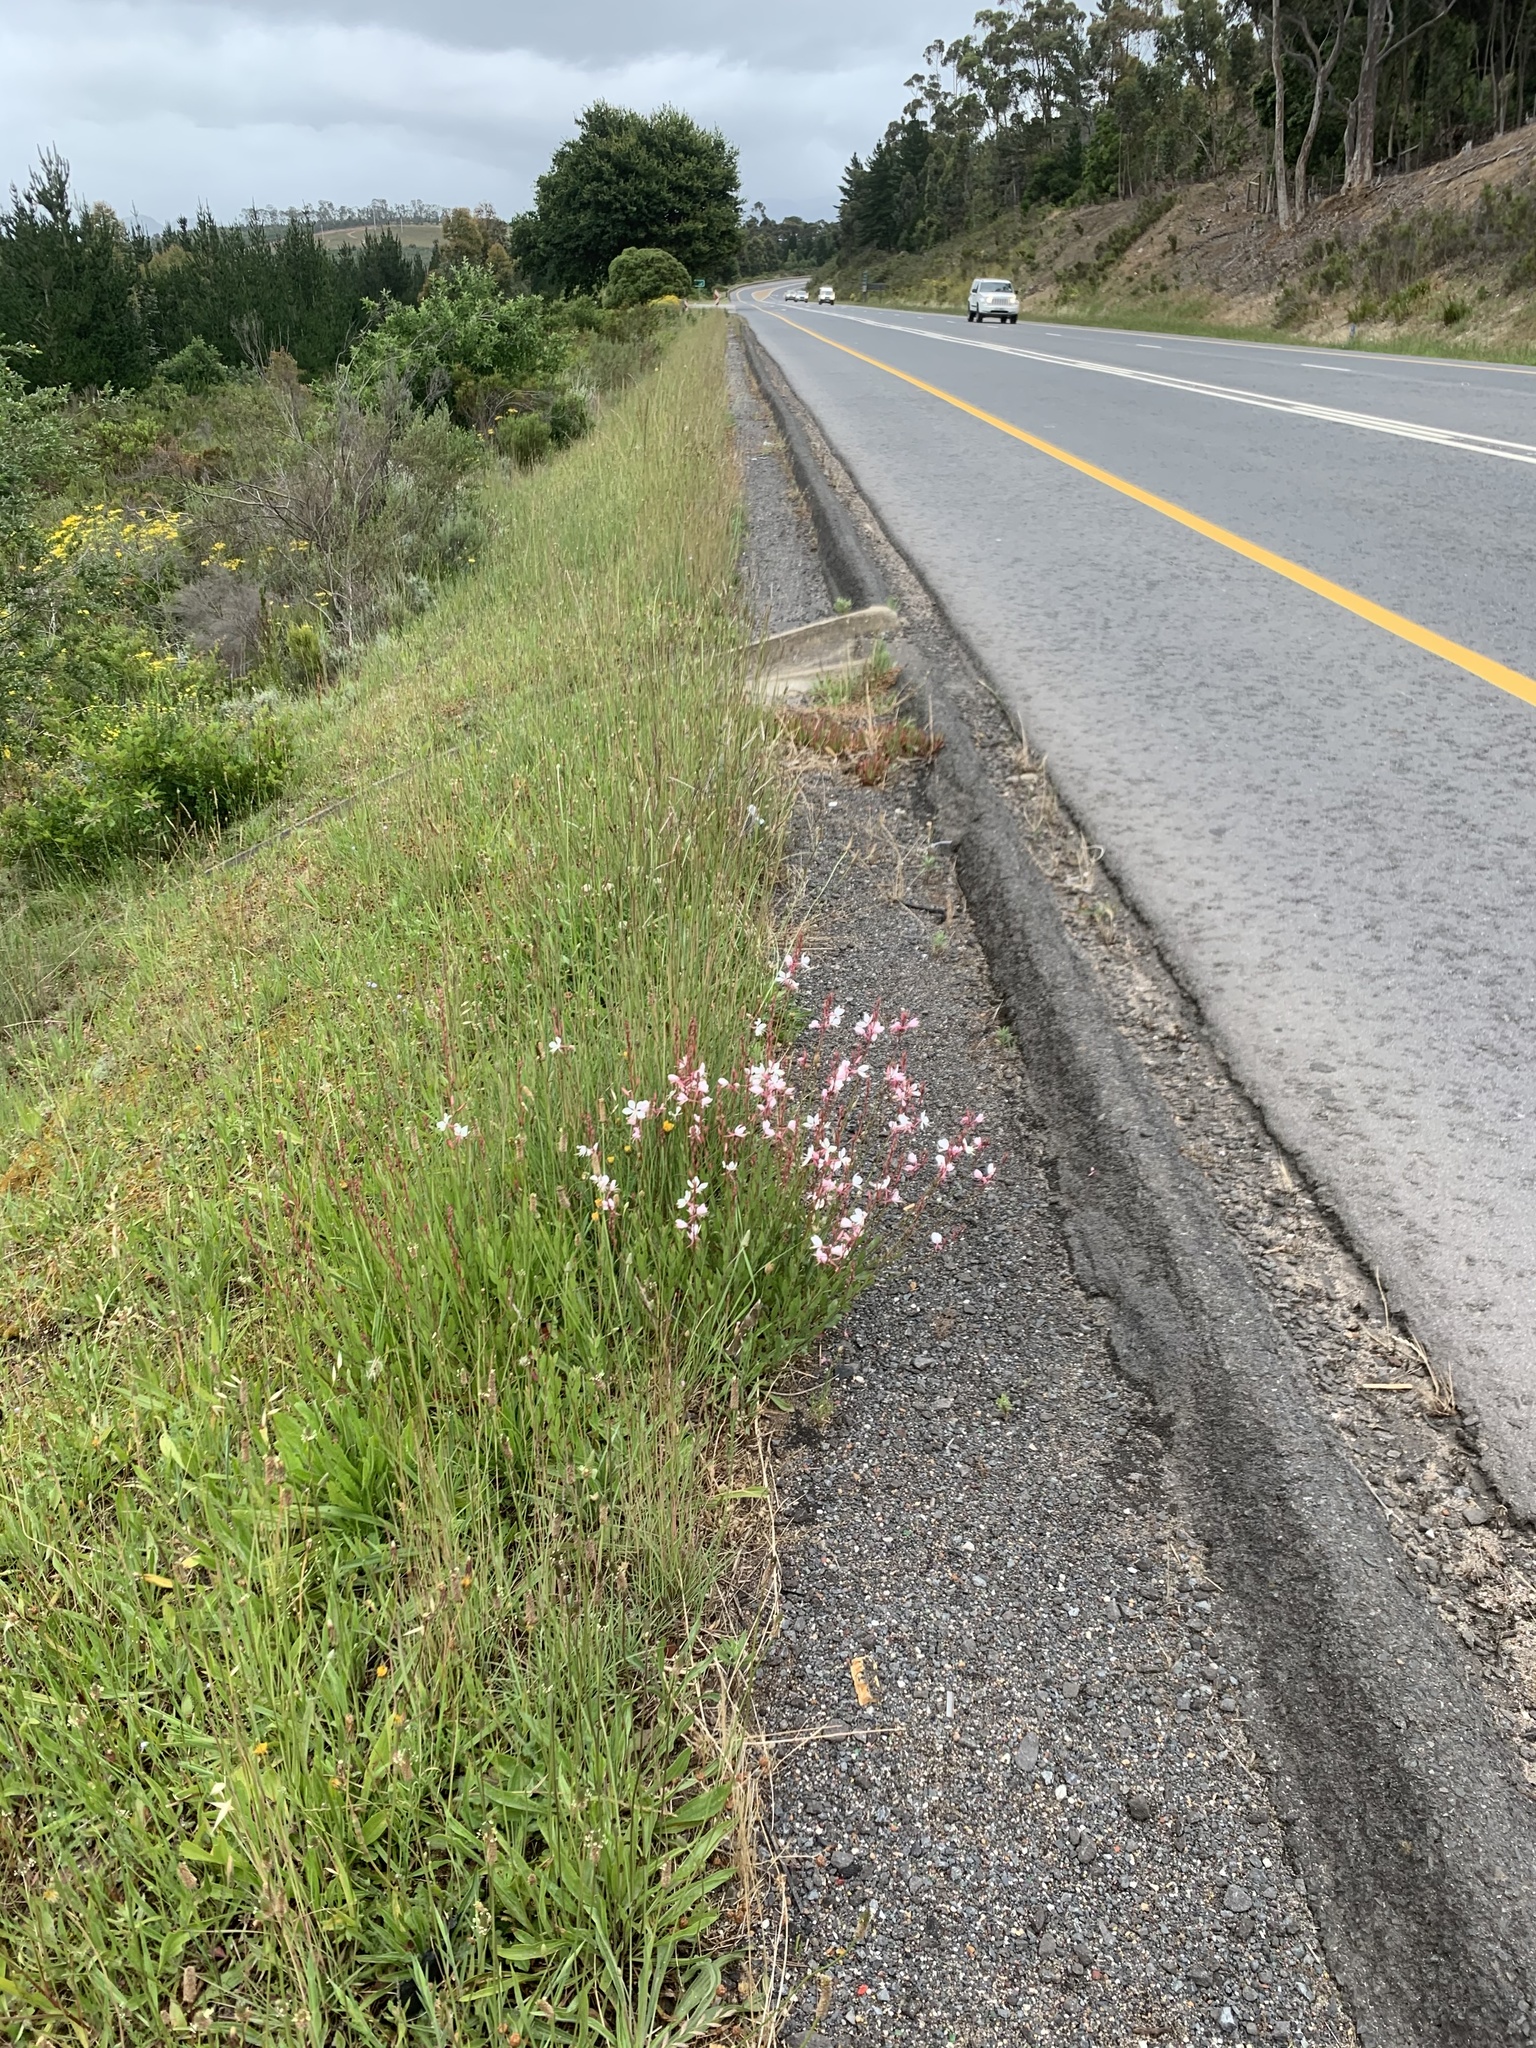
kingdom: Plantae
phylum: Tracheophyta
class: Magnoliopsida
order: Myrtales
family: Onagraceae
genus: Oenothera
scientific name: Oenothera lindheimeri
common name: Lindheimer's beeblossom
